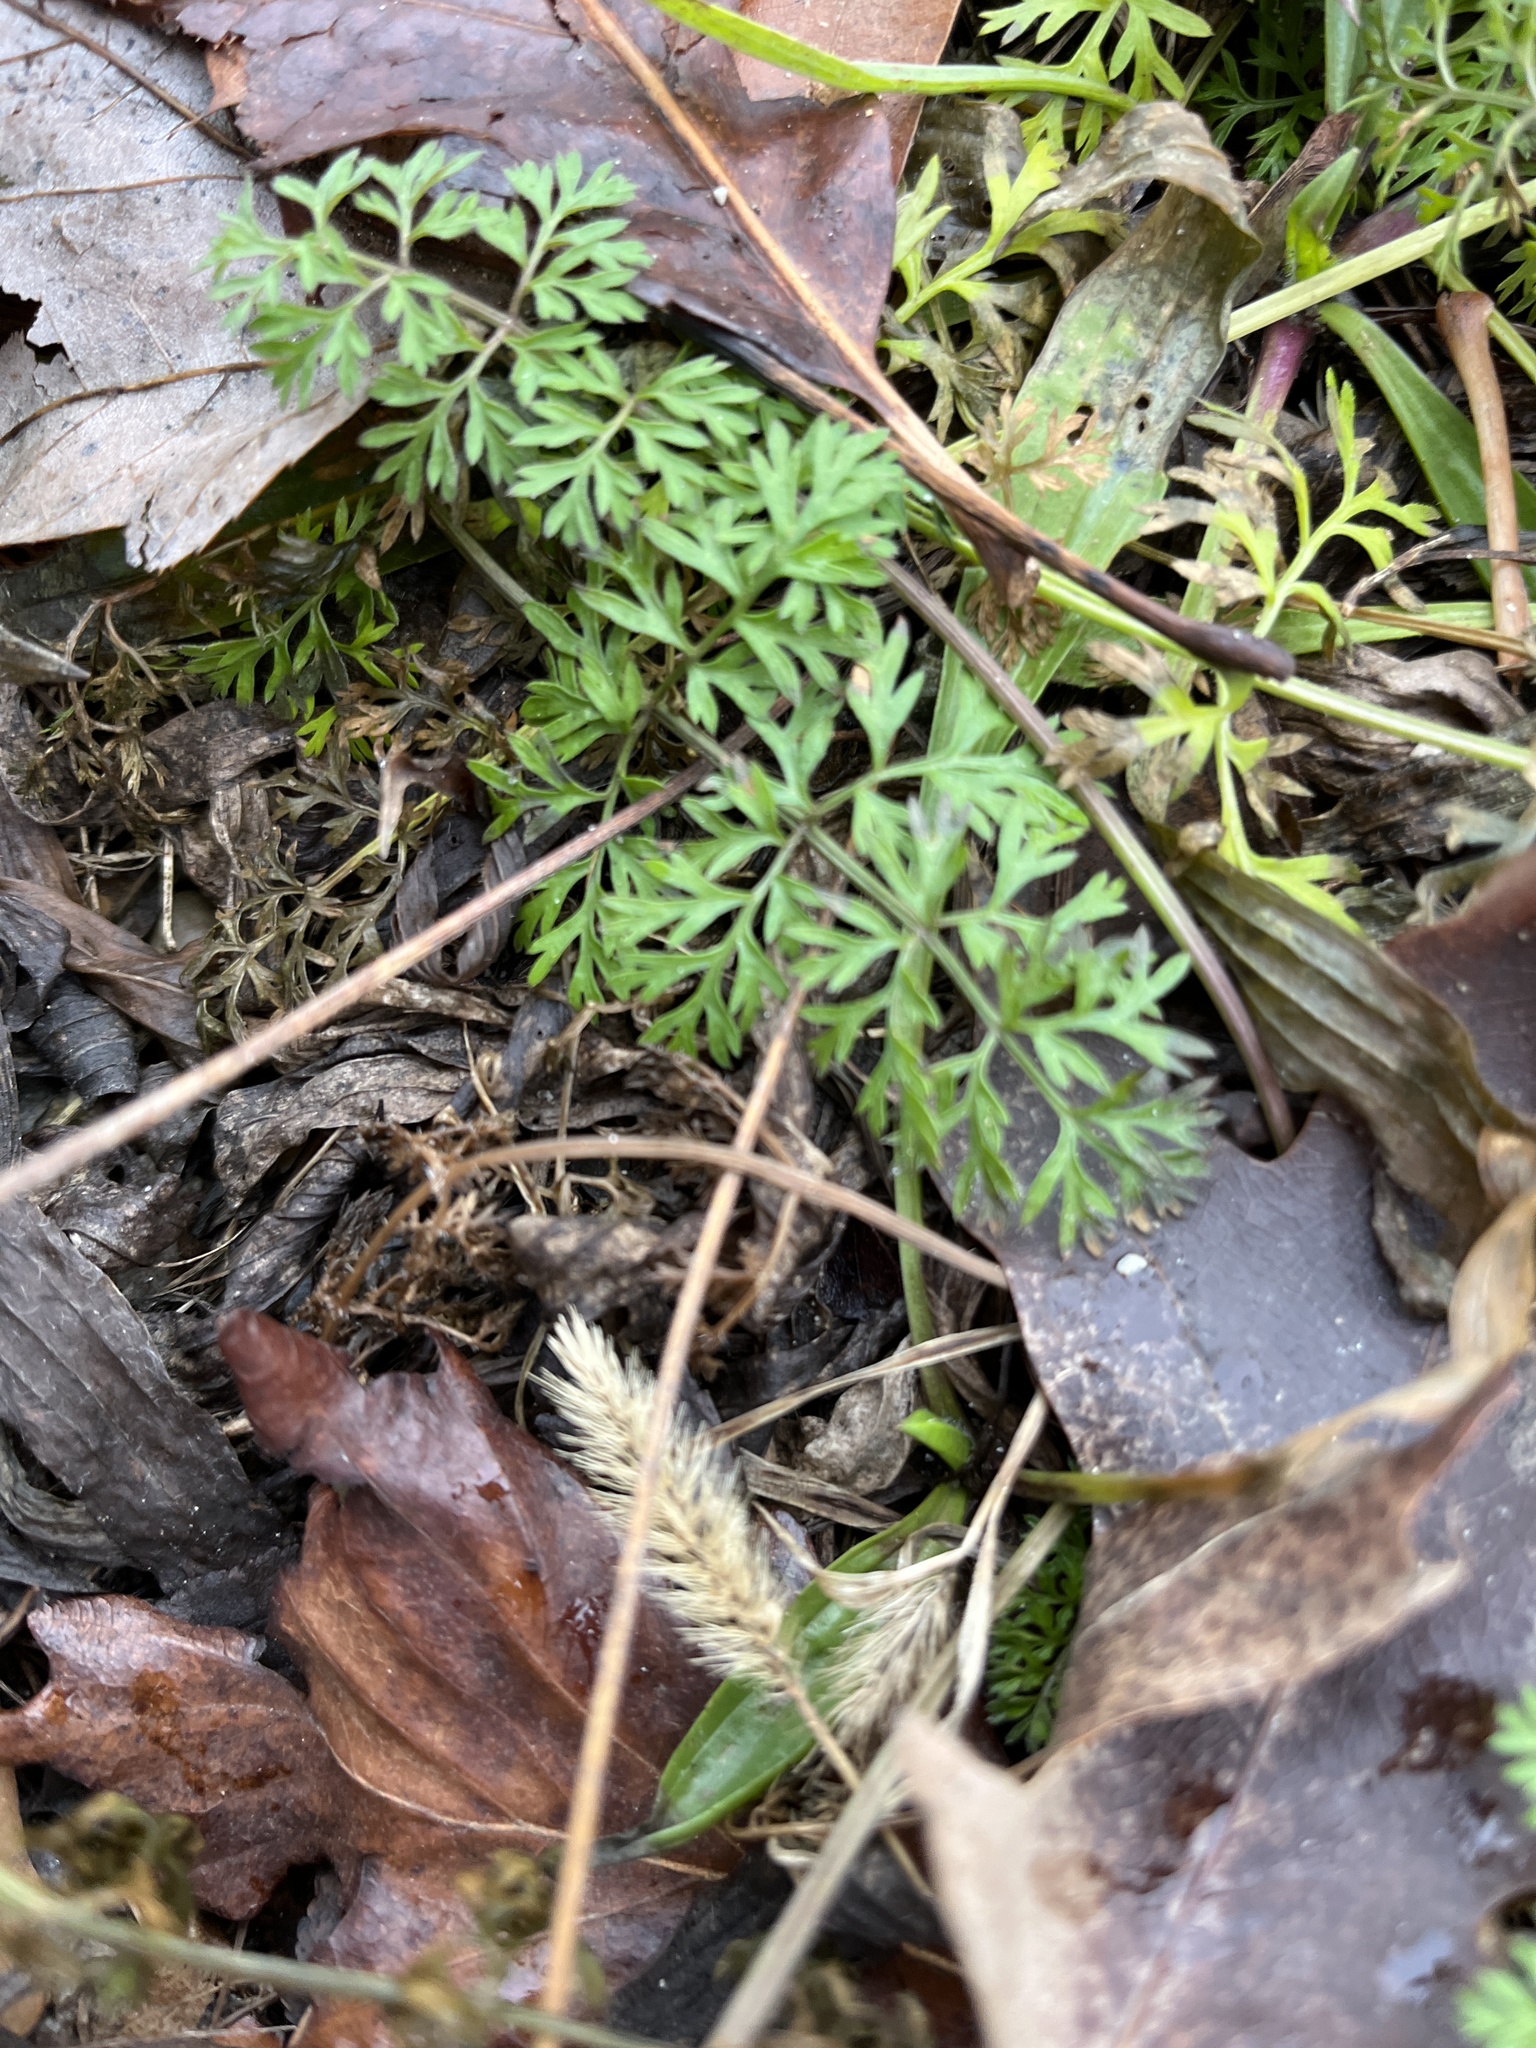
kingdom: Plantae
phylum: Tracheophyta
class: Magnoliopsida
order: Apiales
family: Apiaceae
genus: Daucus
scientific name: Daucus carota
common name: Wild carrot
